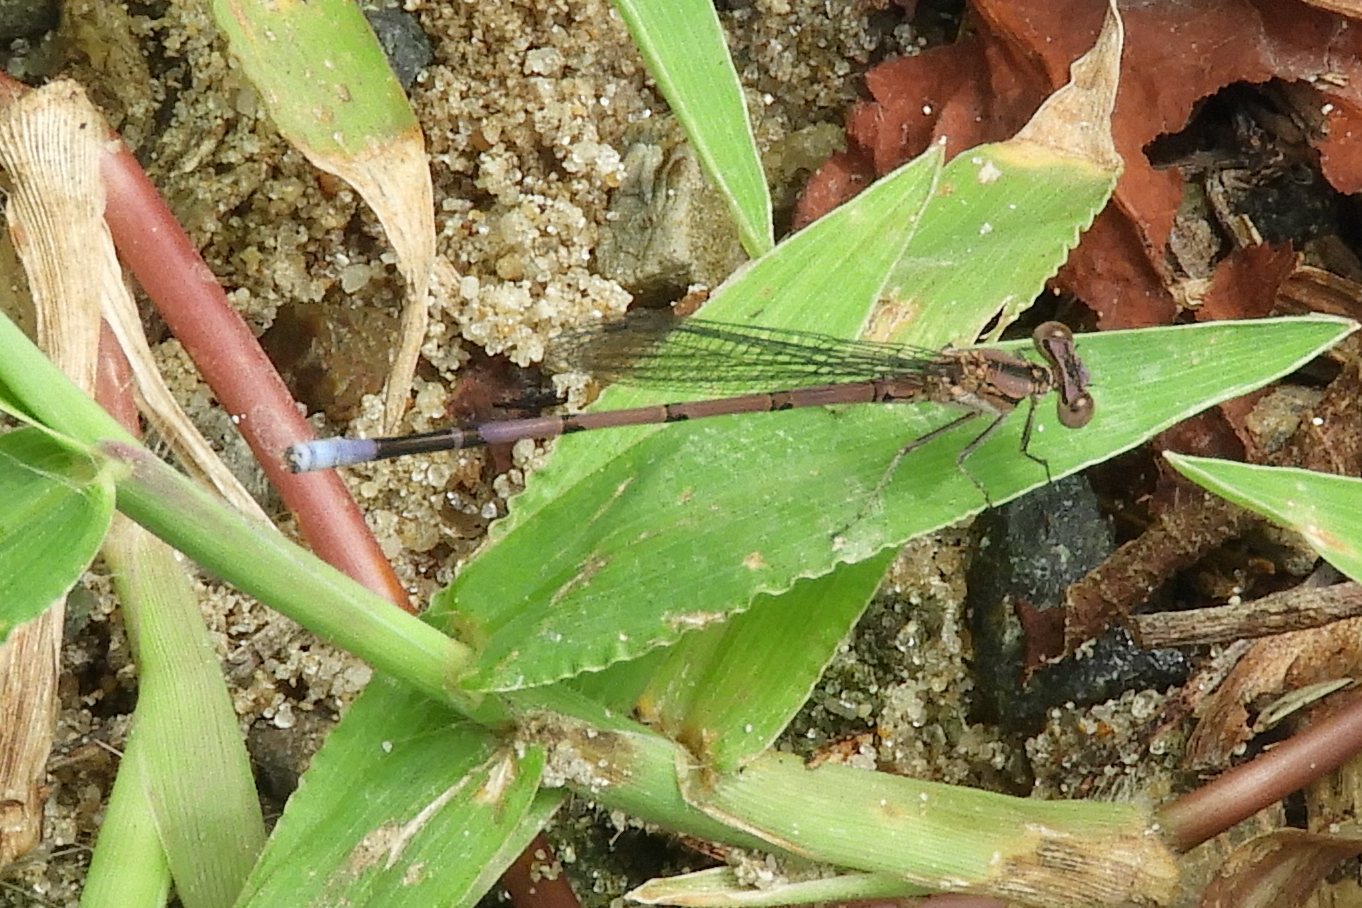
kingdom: Animalia
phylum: Arthropoda
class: Insecta
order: Odonata
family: Coenagrionidae
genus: Argia
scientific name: Argia fumipennis
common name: Variable dancer
